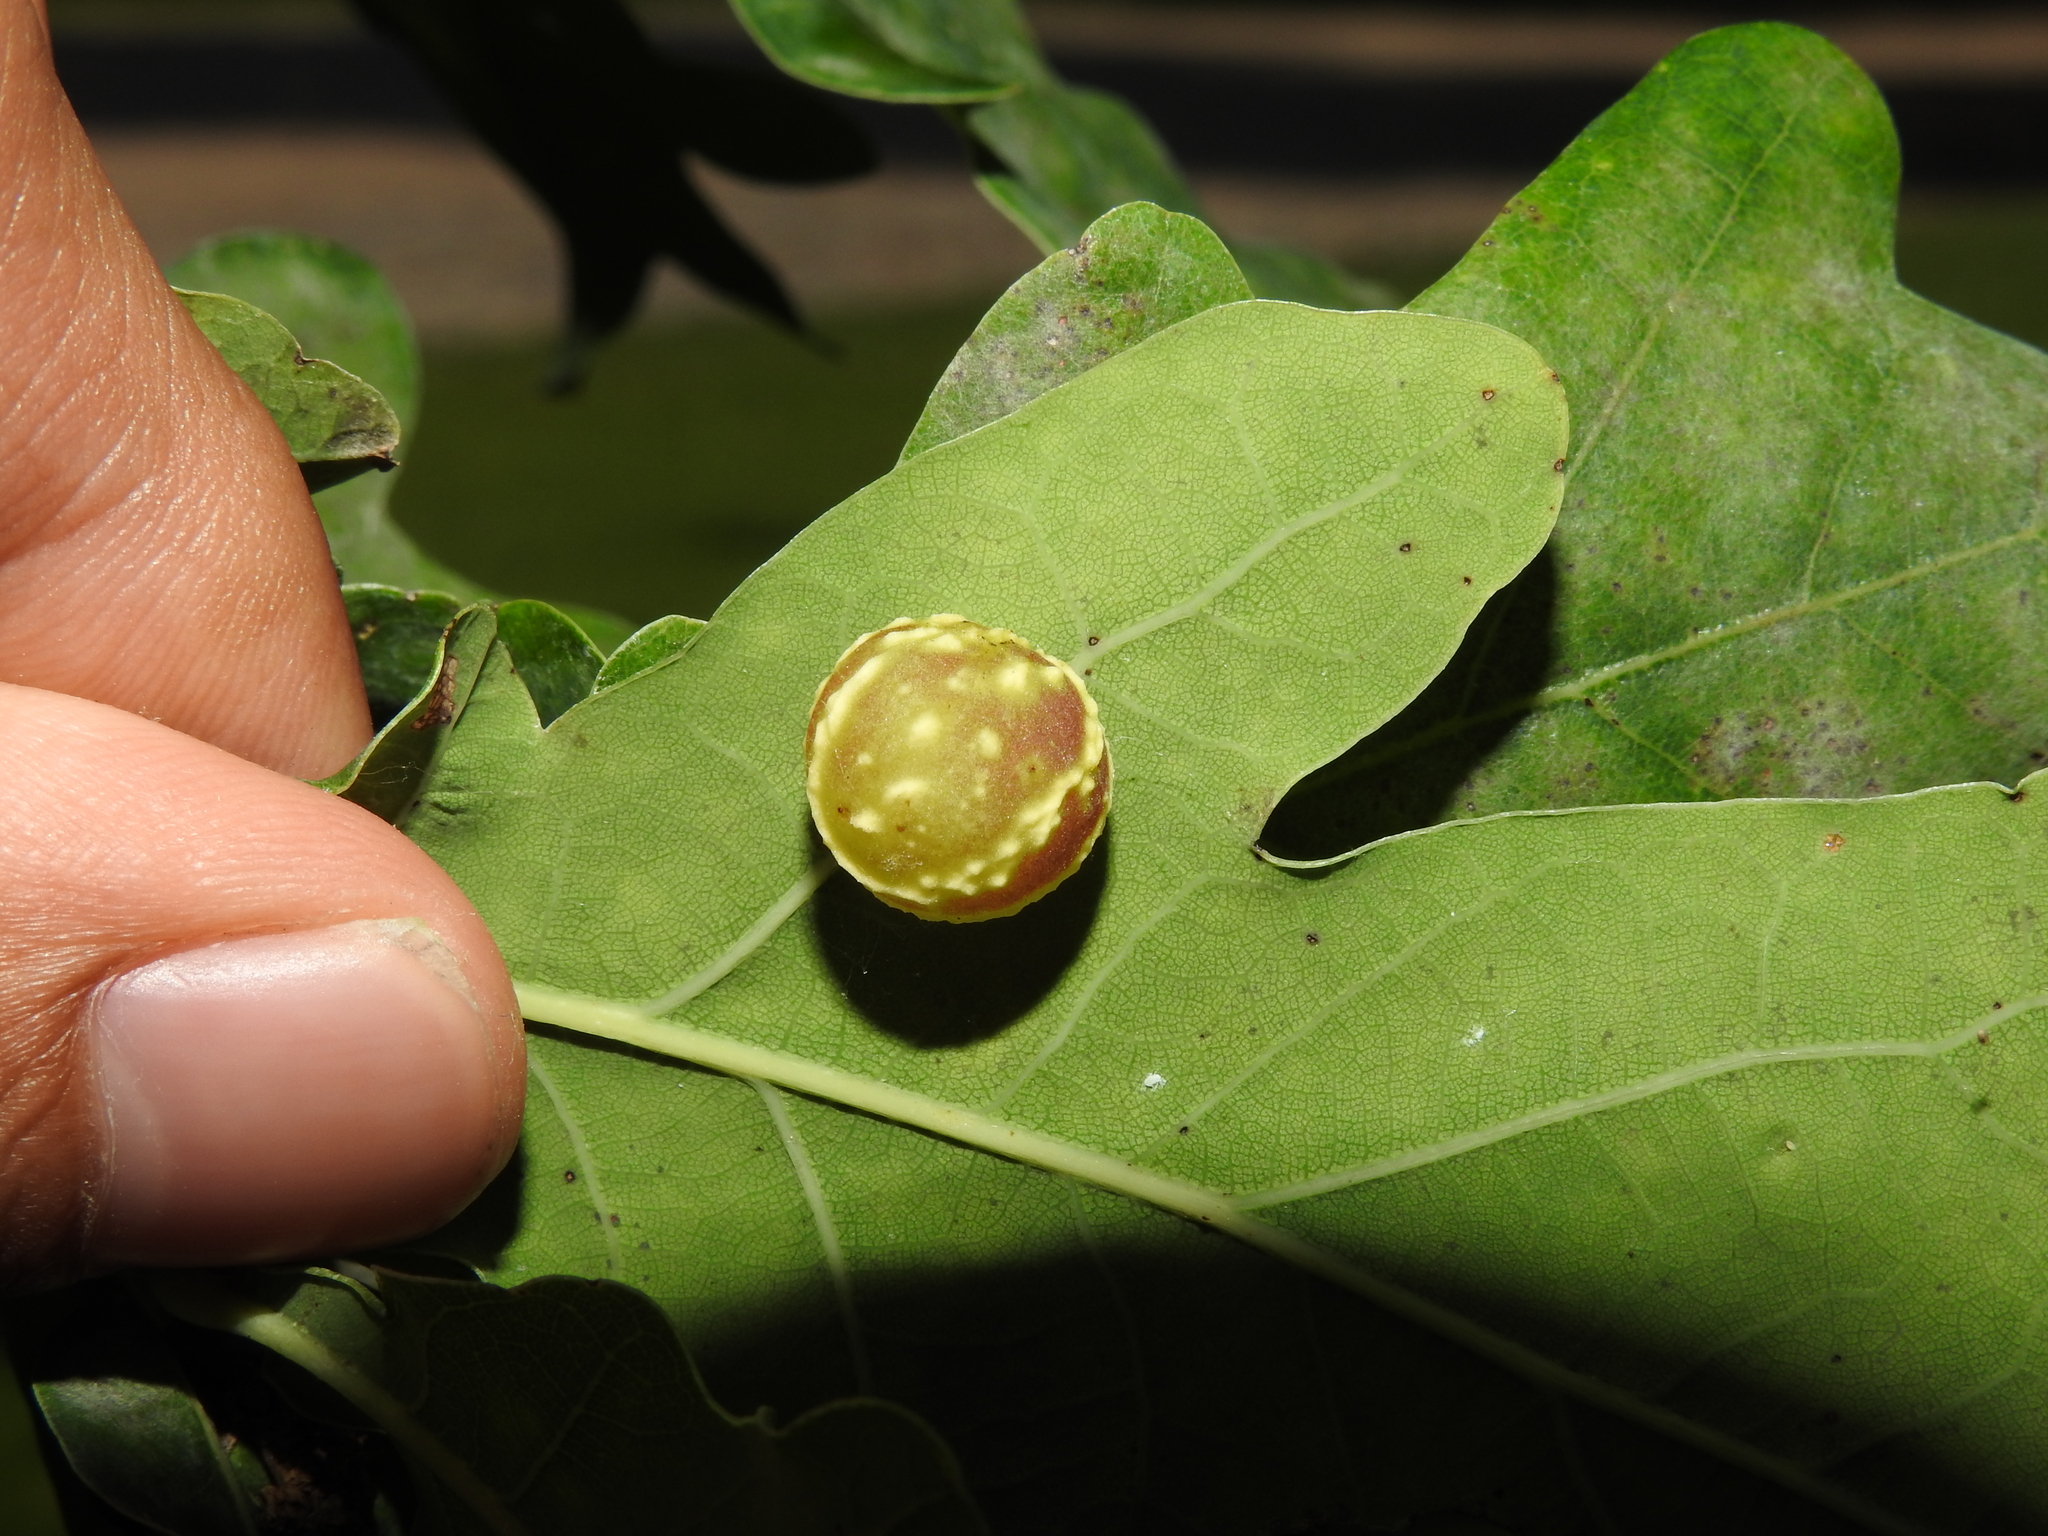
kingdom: Animalia
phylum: Arthropoda
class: Insecta
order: Hymenoptera
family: Cynipidae
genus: Cynips
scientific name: Cynips longiventris
